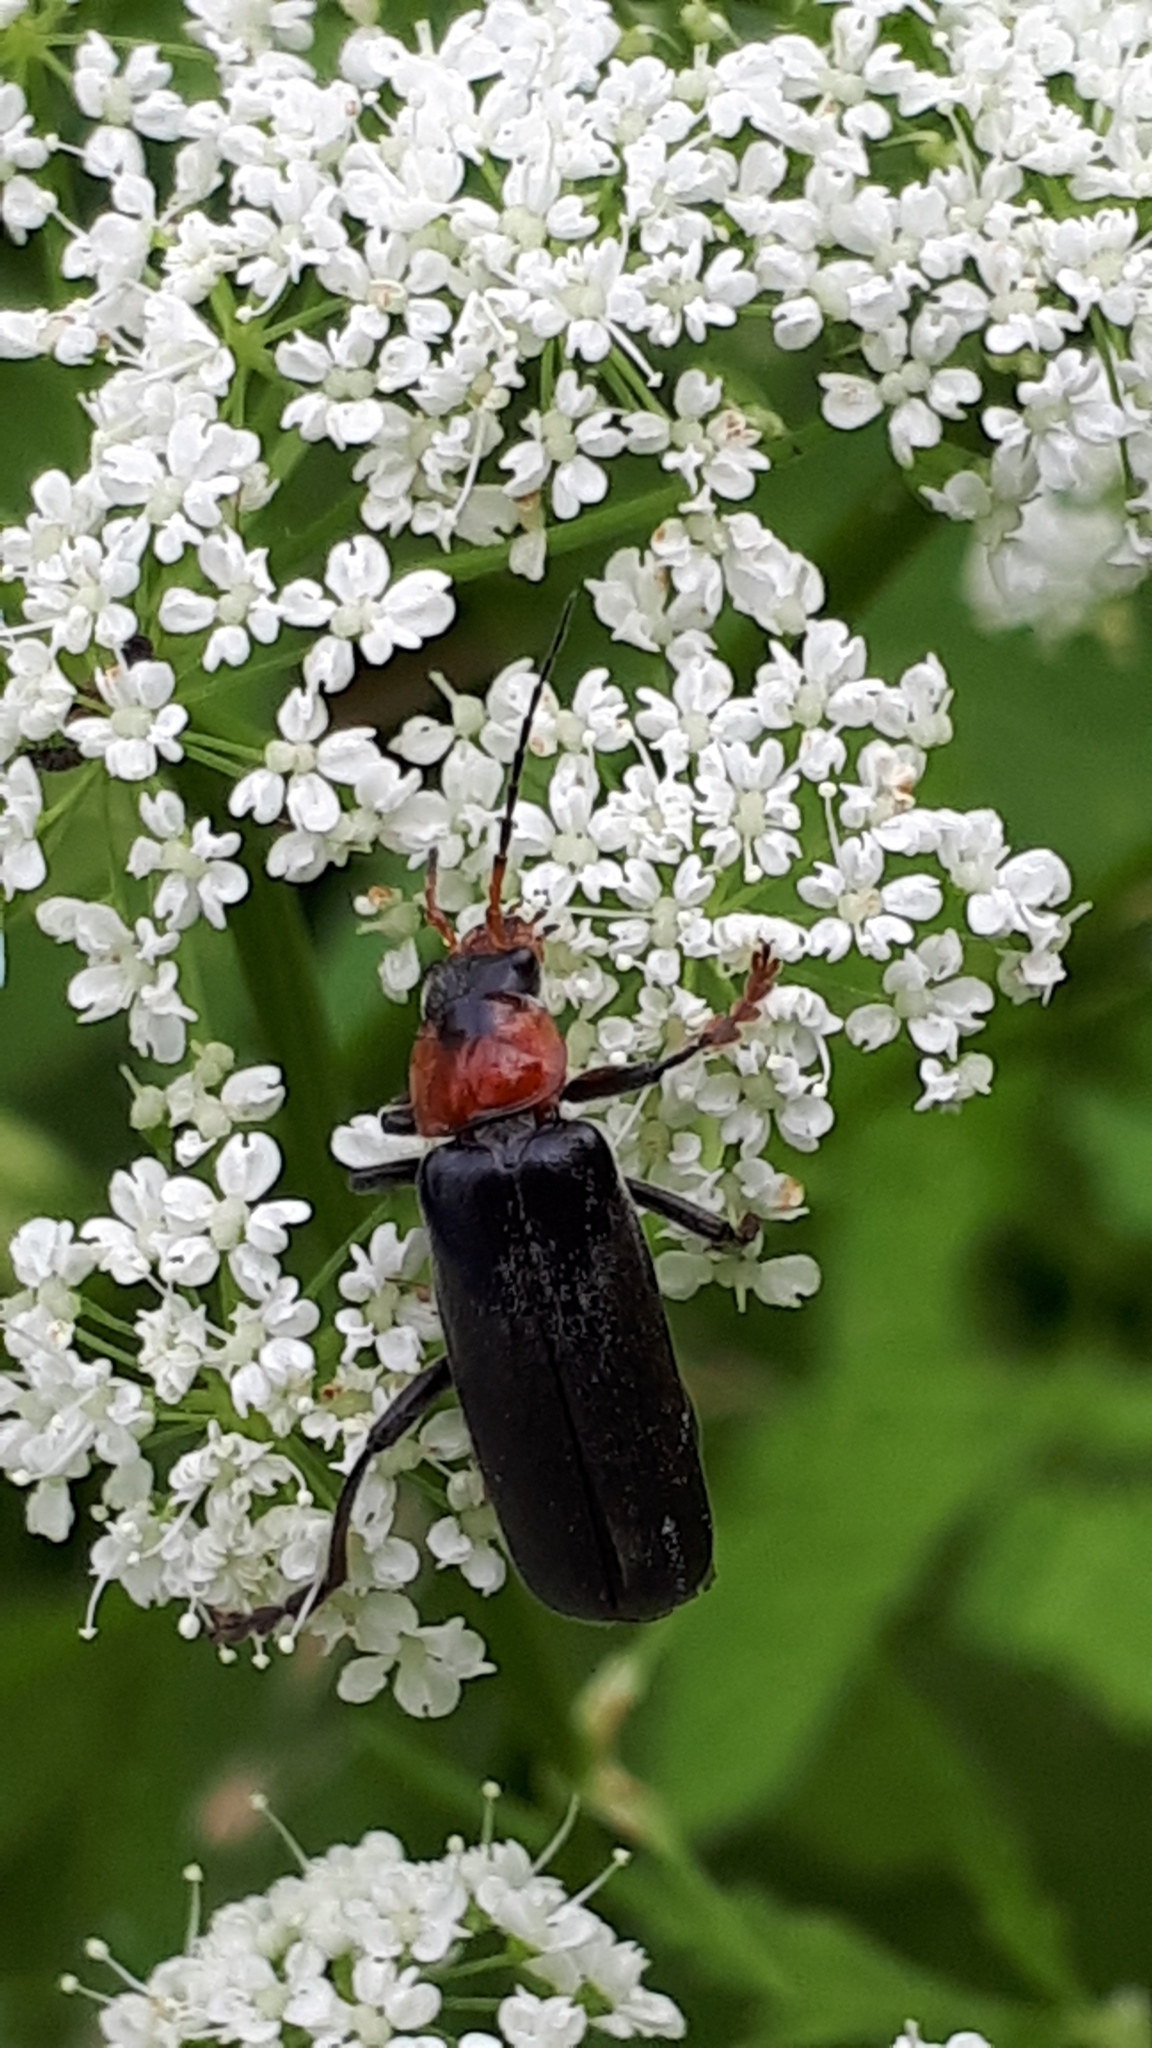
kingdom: Animalia
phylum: Arthropoda
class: Insecta
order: Coleoptera
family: Cantharidae
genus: Cantharis
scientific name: Cantharis fusca
